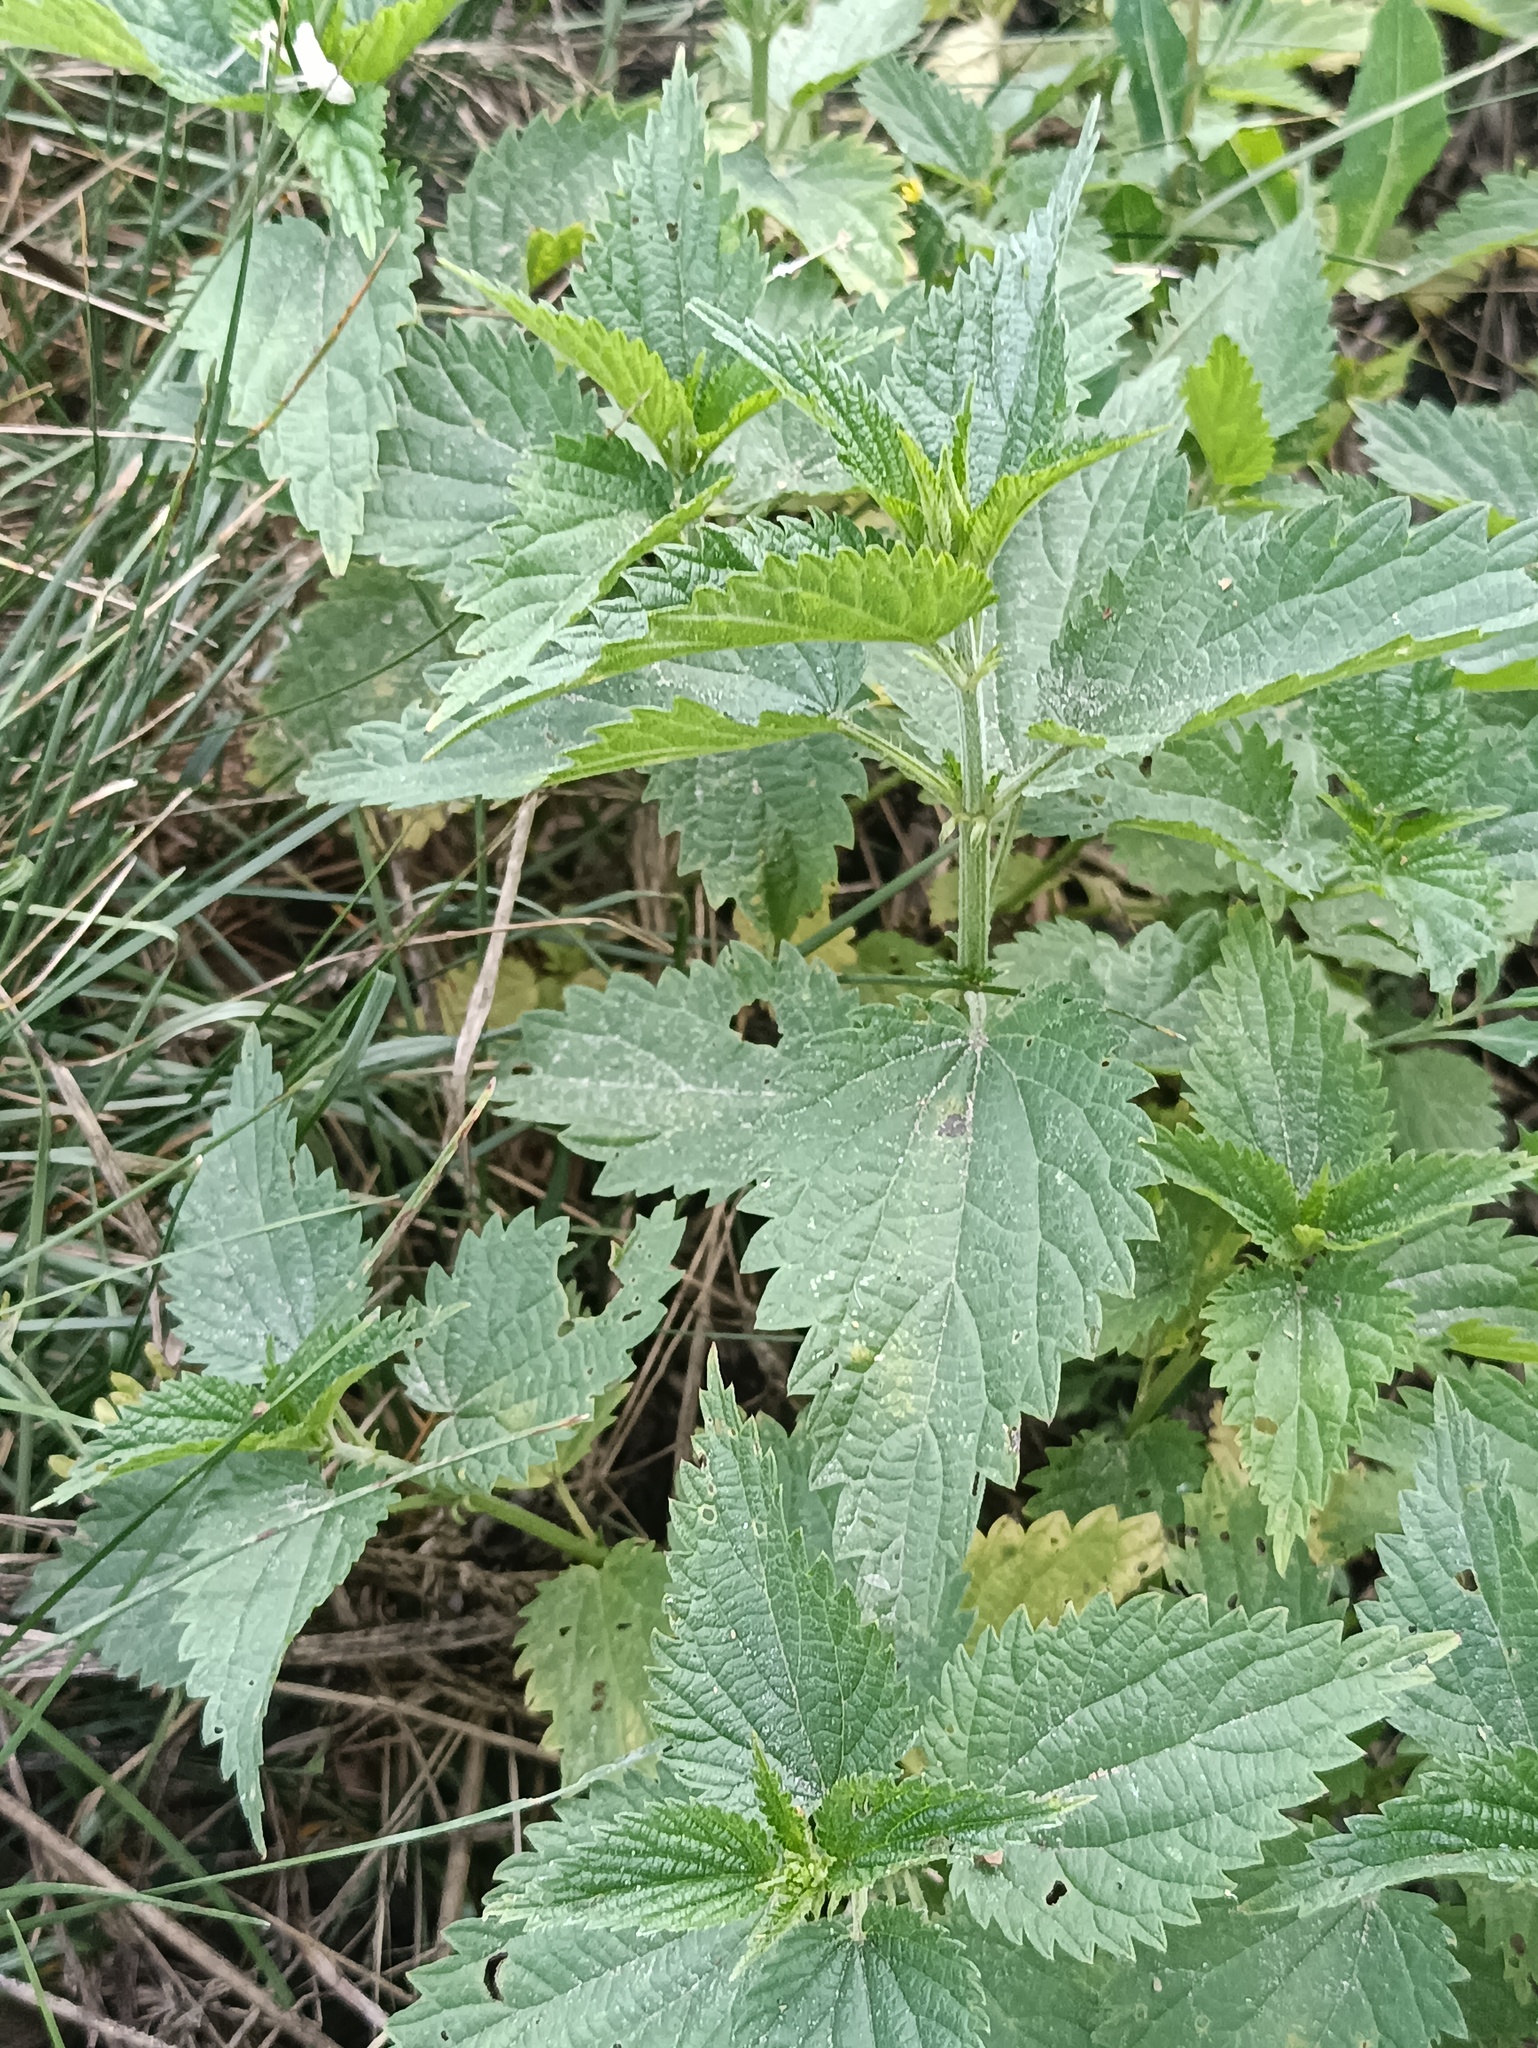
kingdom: Plantae
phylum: Tracheophyta
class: Magnoliopsida
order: Rosales
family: Urticaceae
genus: Urtica
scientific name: Urtica dioica
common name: Common nettle
